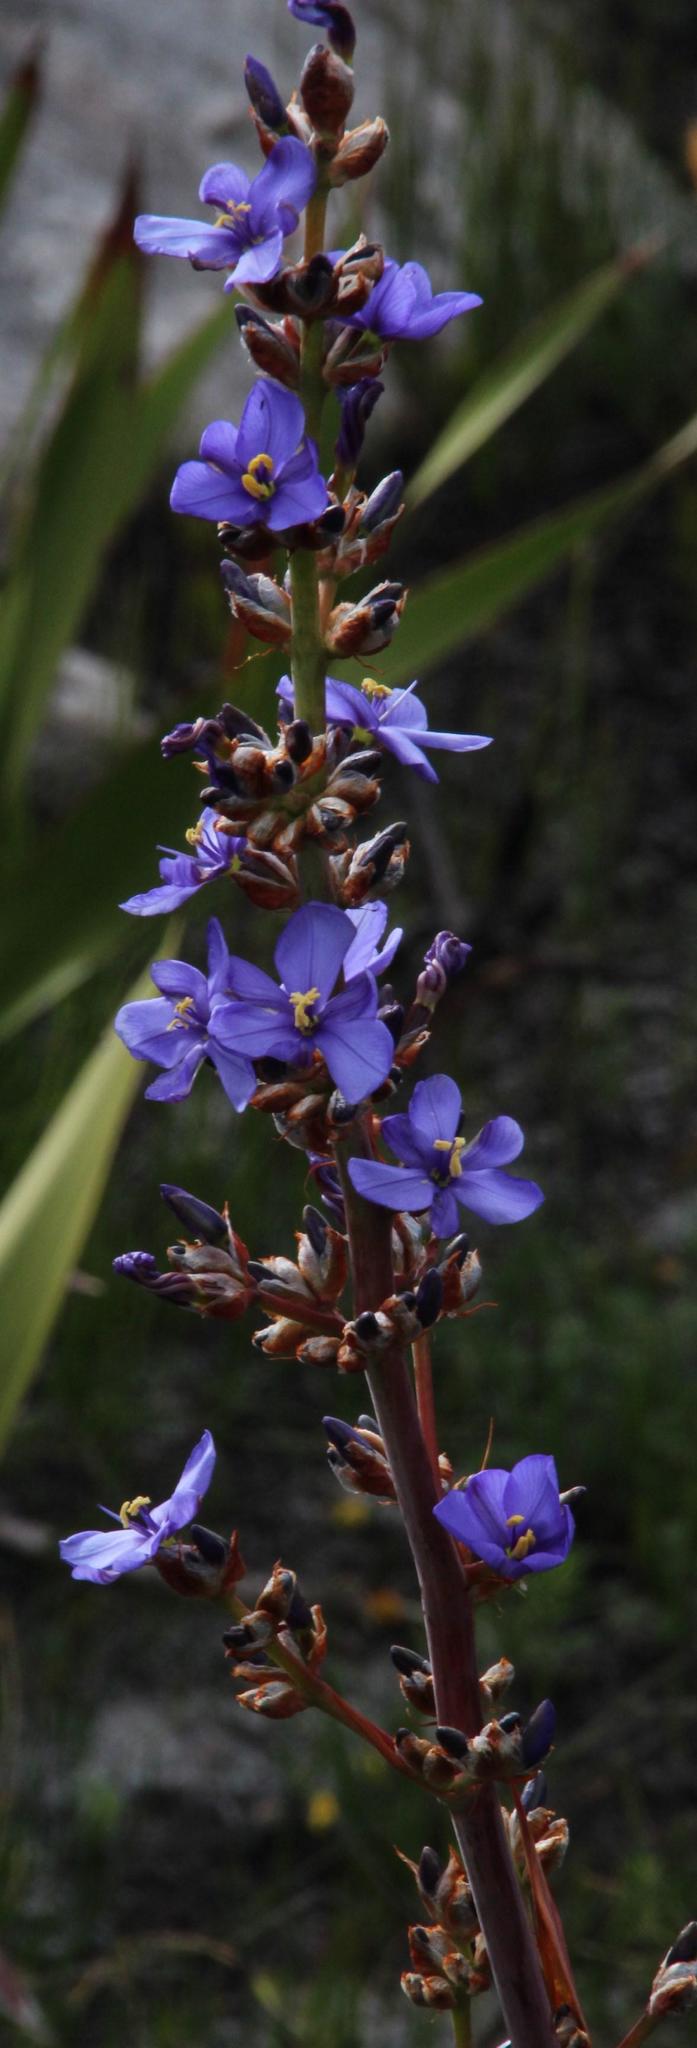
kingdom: Plantae
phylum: Tracheophyta
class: Liliopsida
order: Asparagales
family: Iridaceae
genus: Aristea
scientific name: Aristea bakeri
